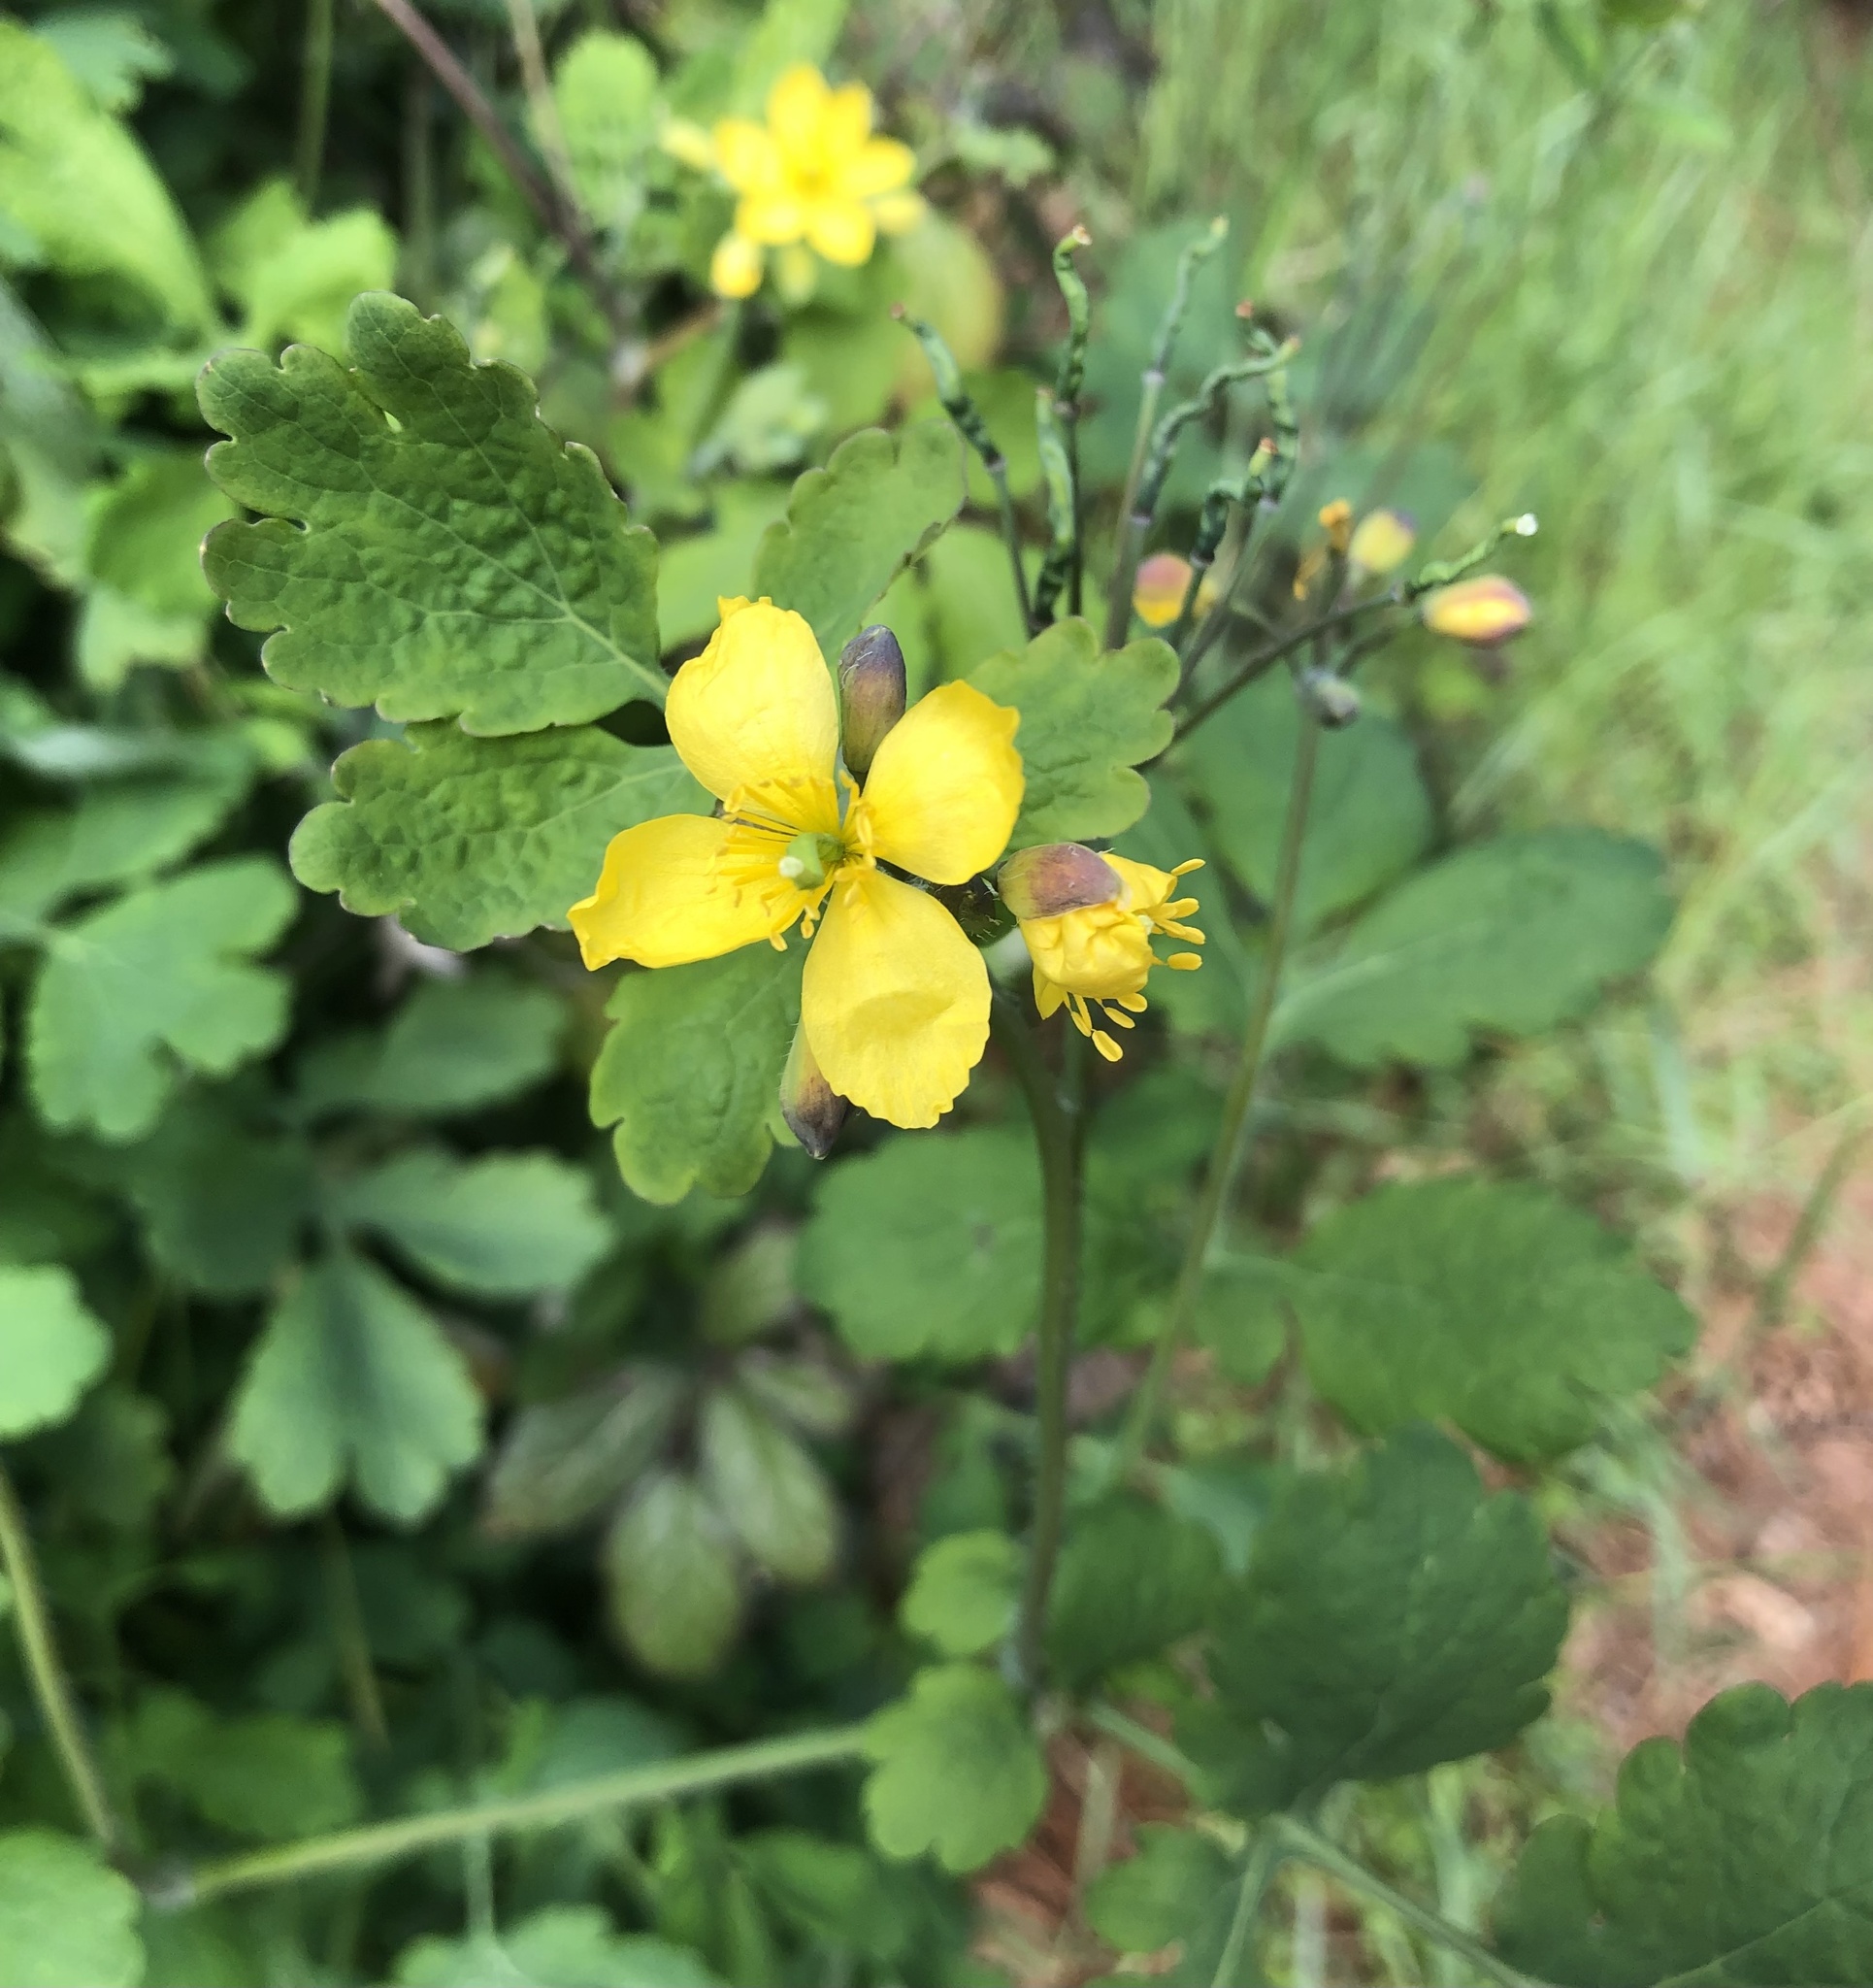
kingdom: Plantae
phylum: Tracheophyta
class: Magnoliopsida
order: Ranunculales
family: Papaveraceae
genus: Chelidonium
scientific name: Chelidonium majus
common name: Greater celandine
